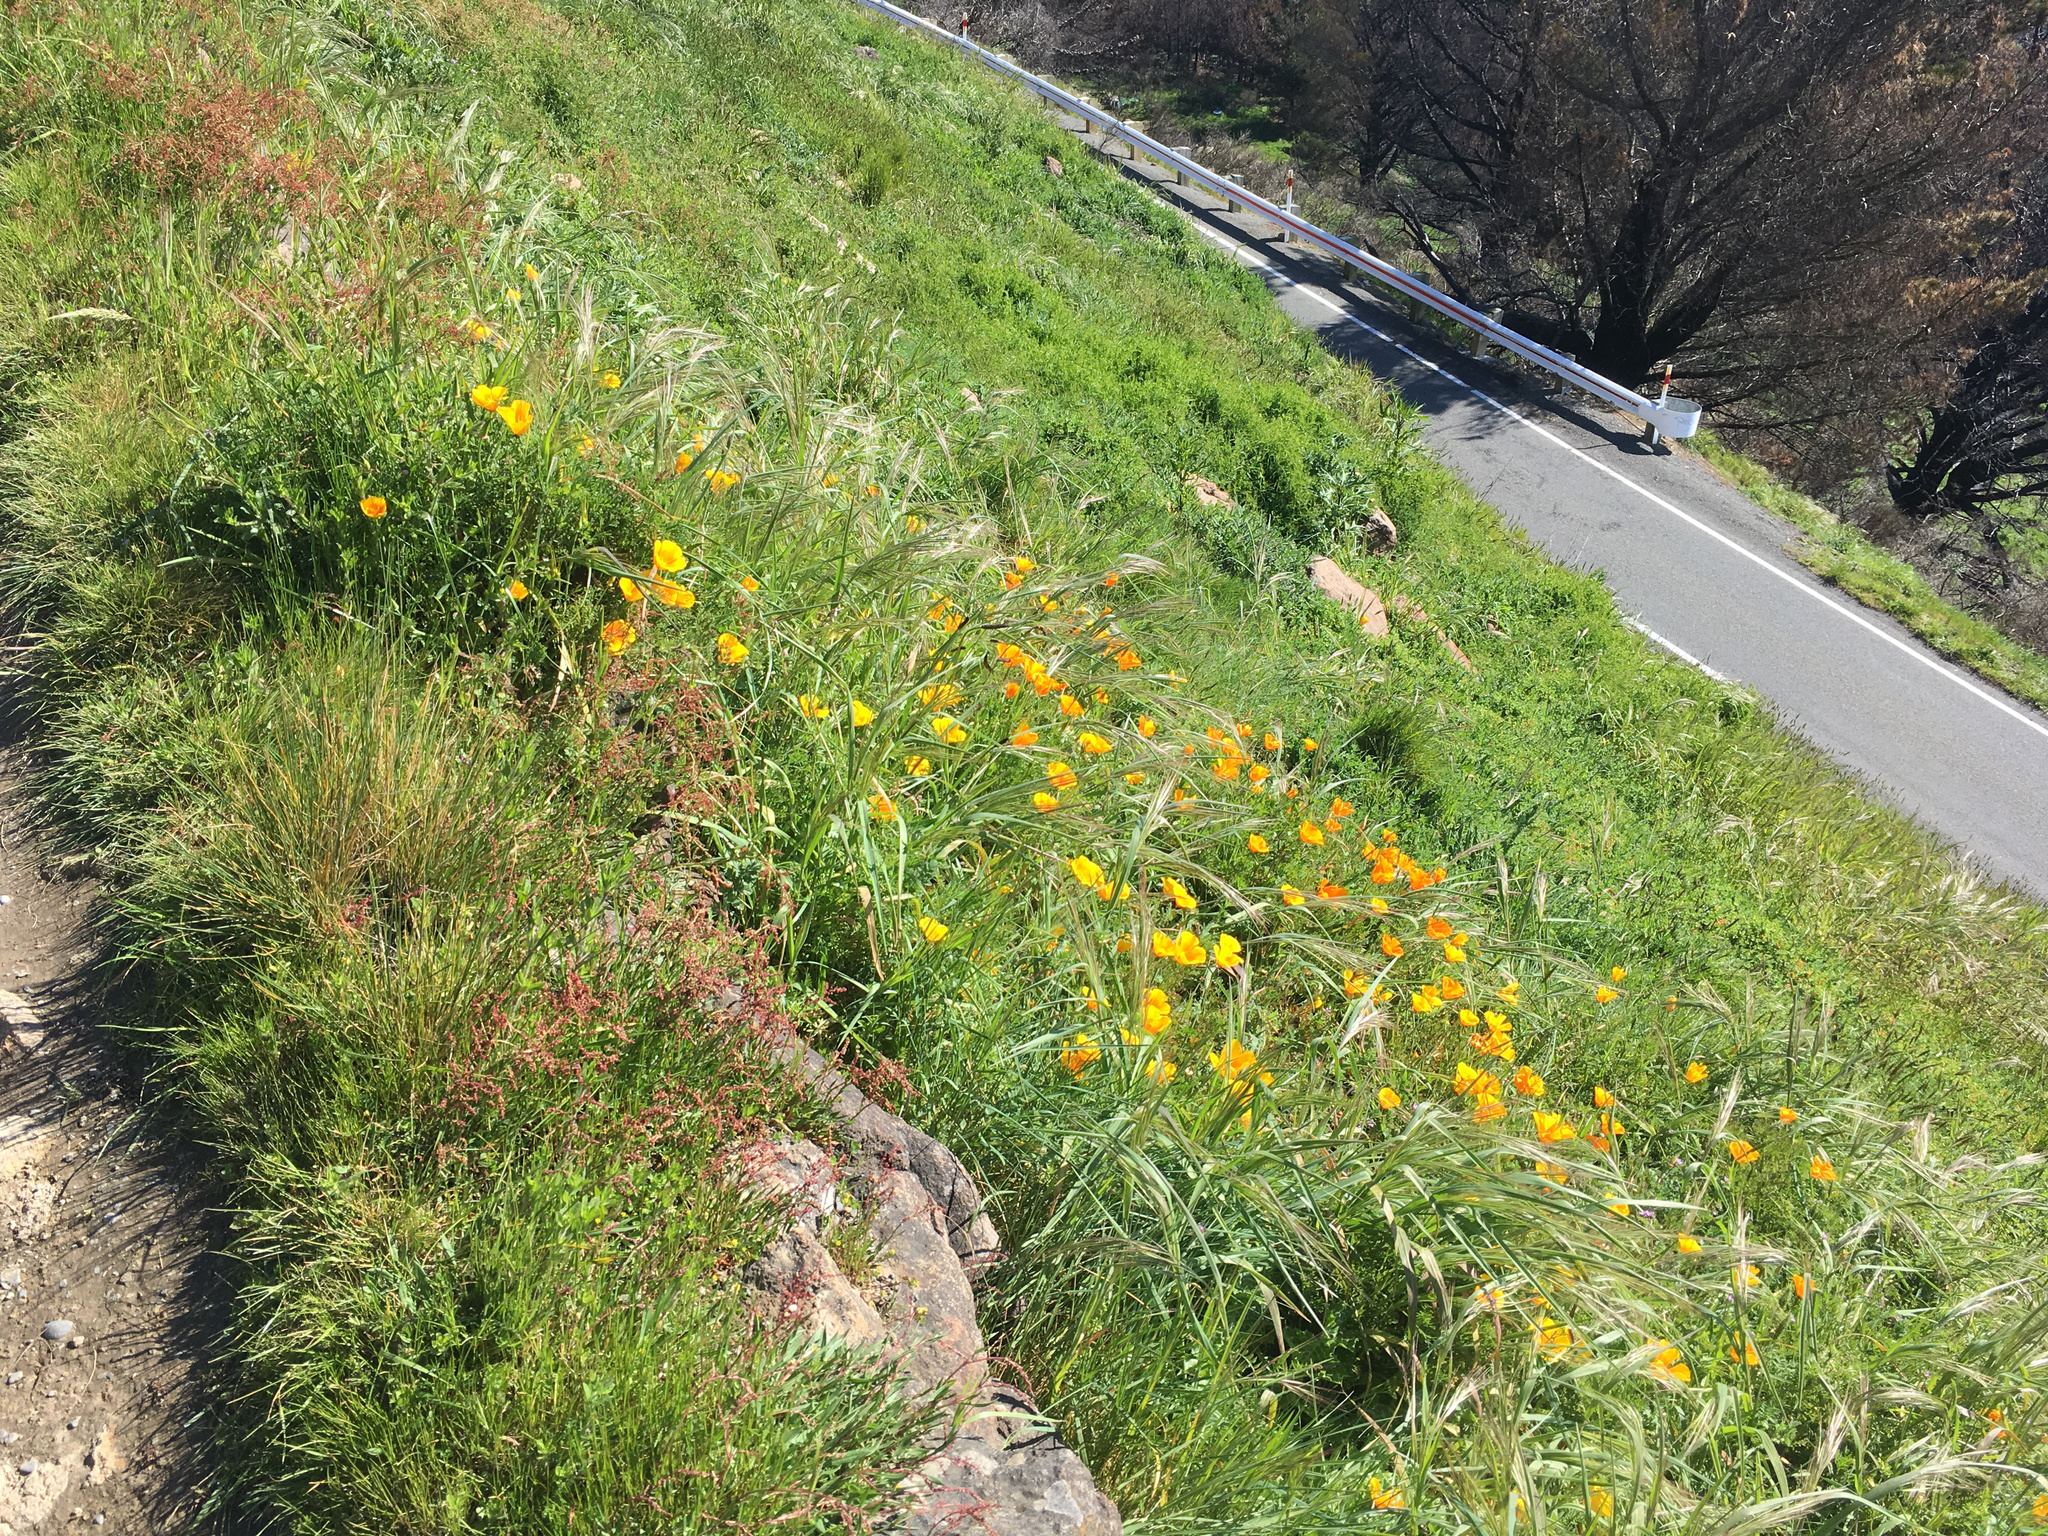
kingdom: Plantae
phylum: Tracheophyta
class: Magnoliopsida
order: Ranunculales
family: Papaveraceae
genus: Eschscholzia
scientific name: Eschscholzia californica
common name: California poppy
